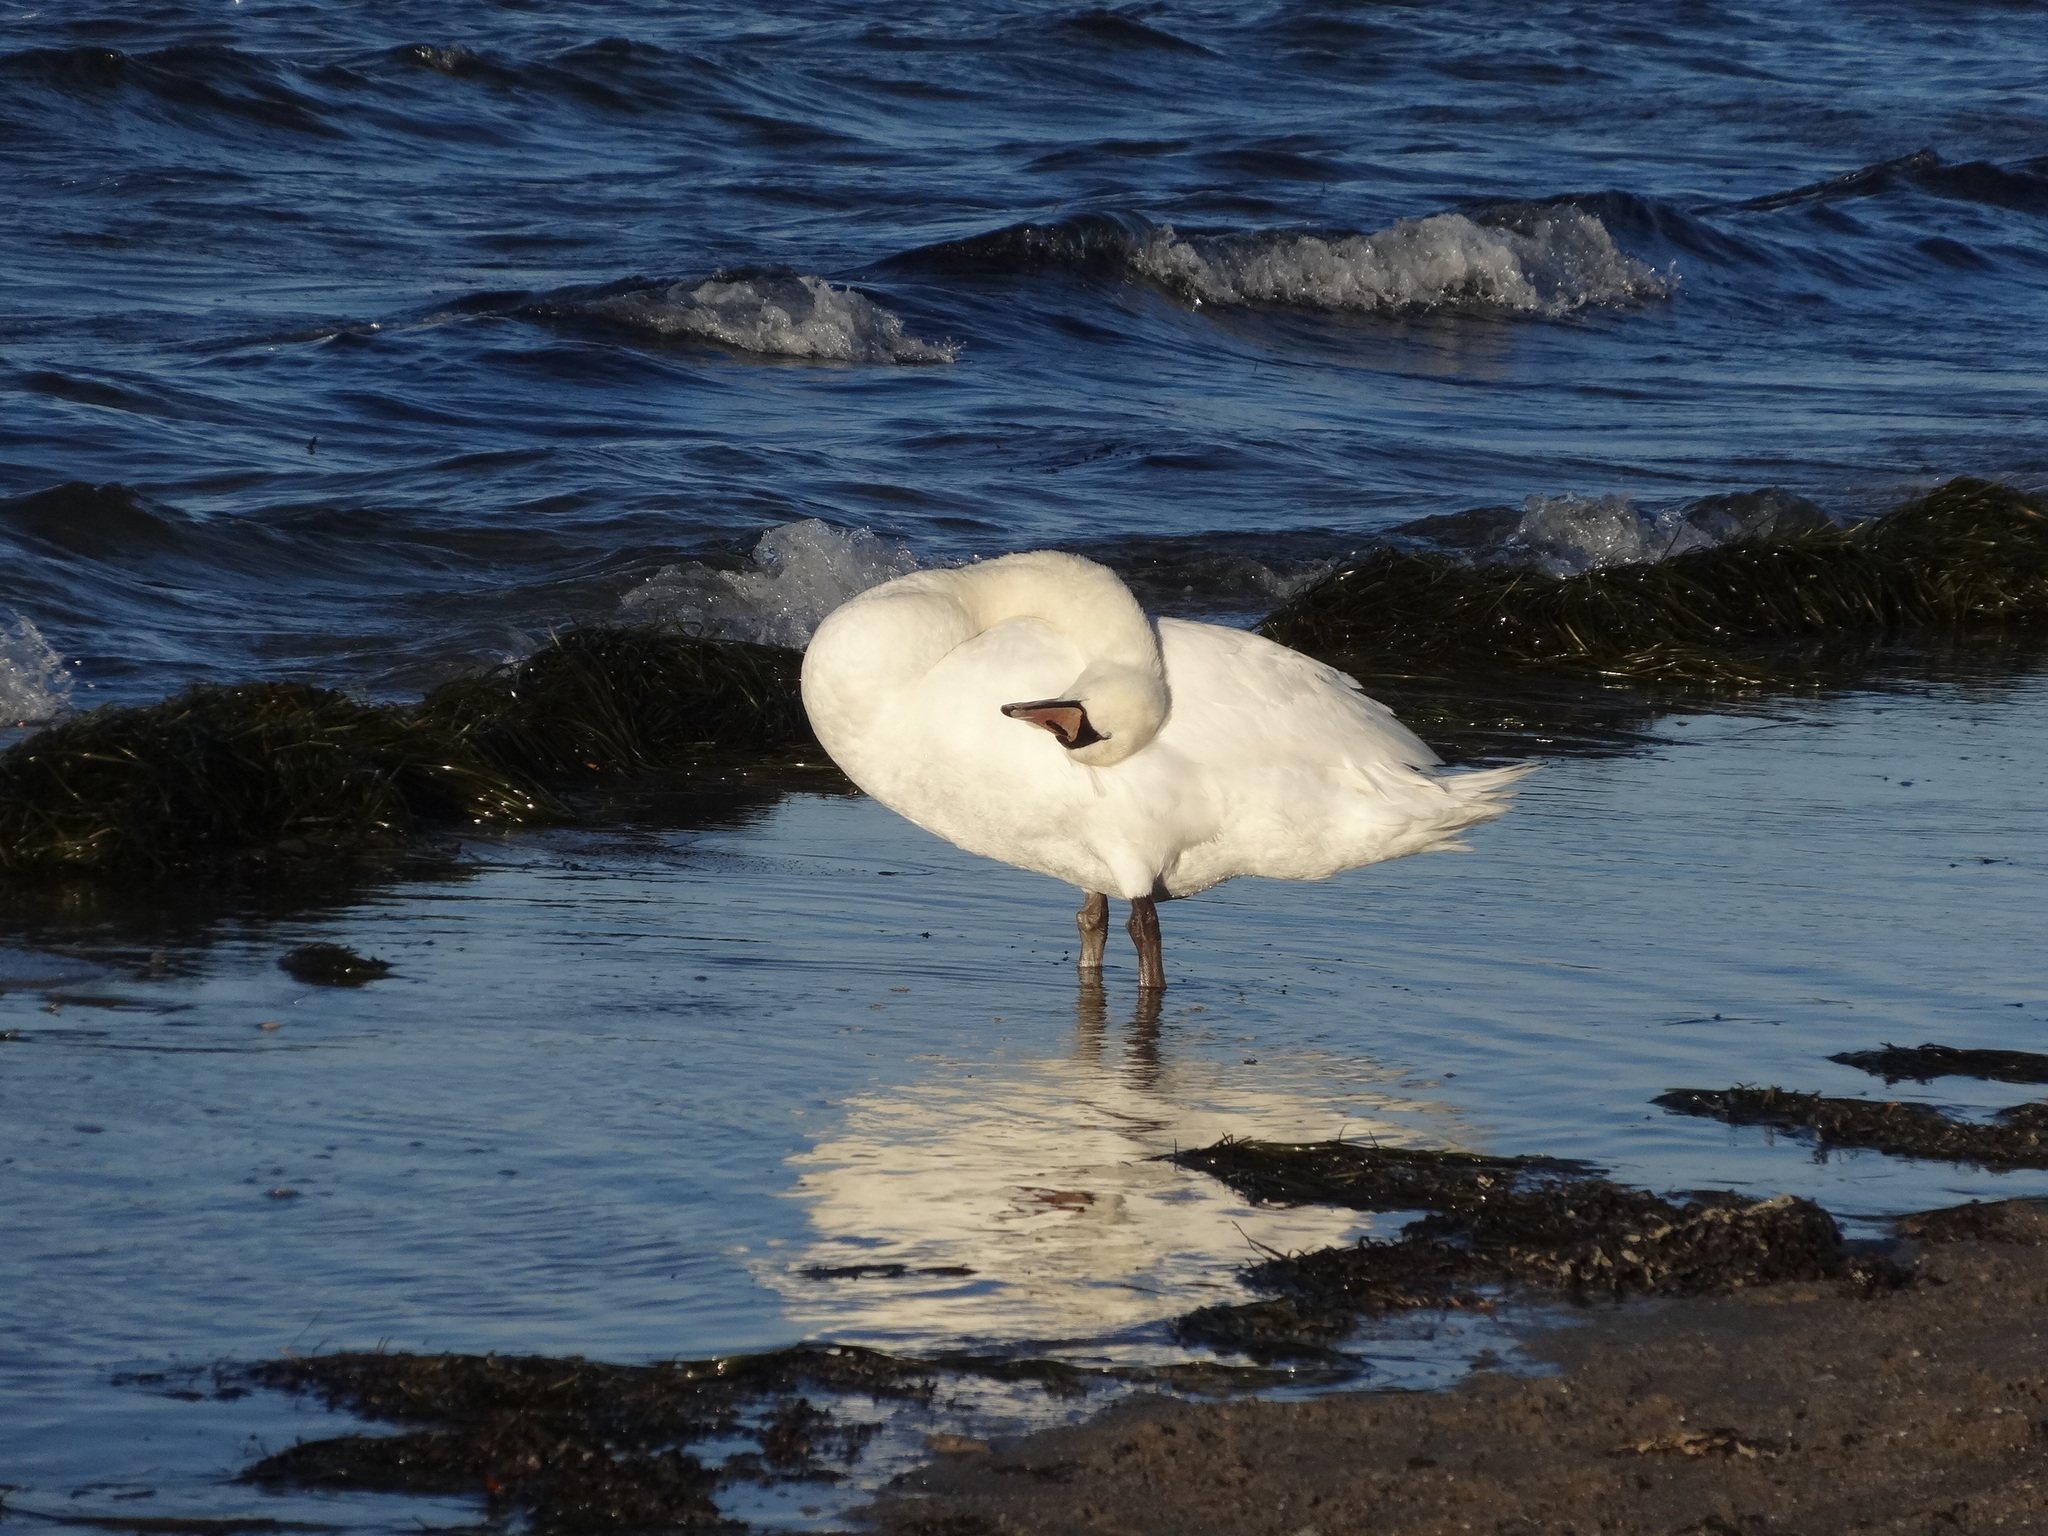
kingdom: Animalia
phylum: Chordata
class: Aves
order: Anseriformes
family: Anatidae
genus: Cygnus
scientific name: Cygnus olor
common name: Mute swan
